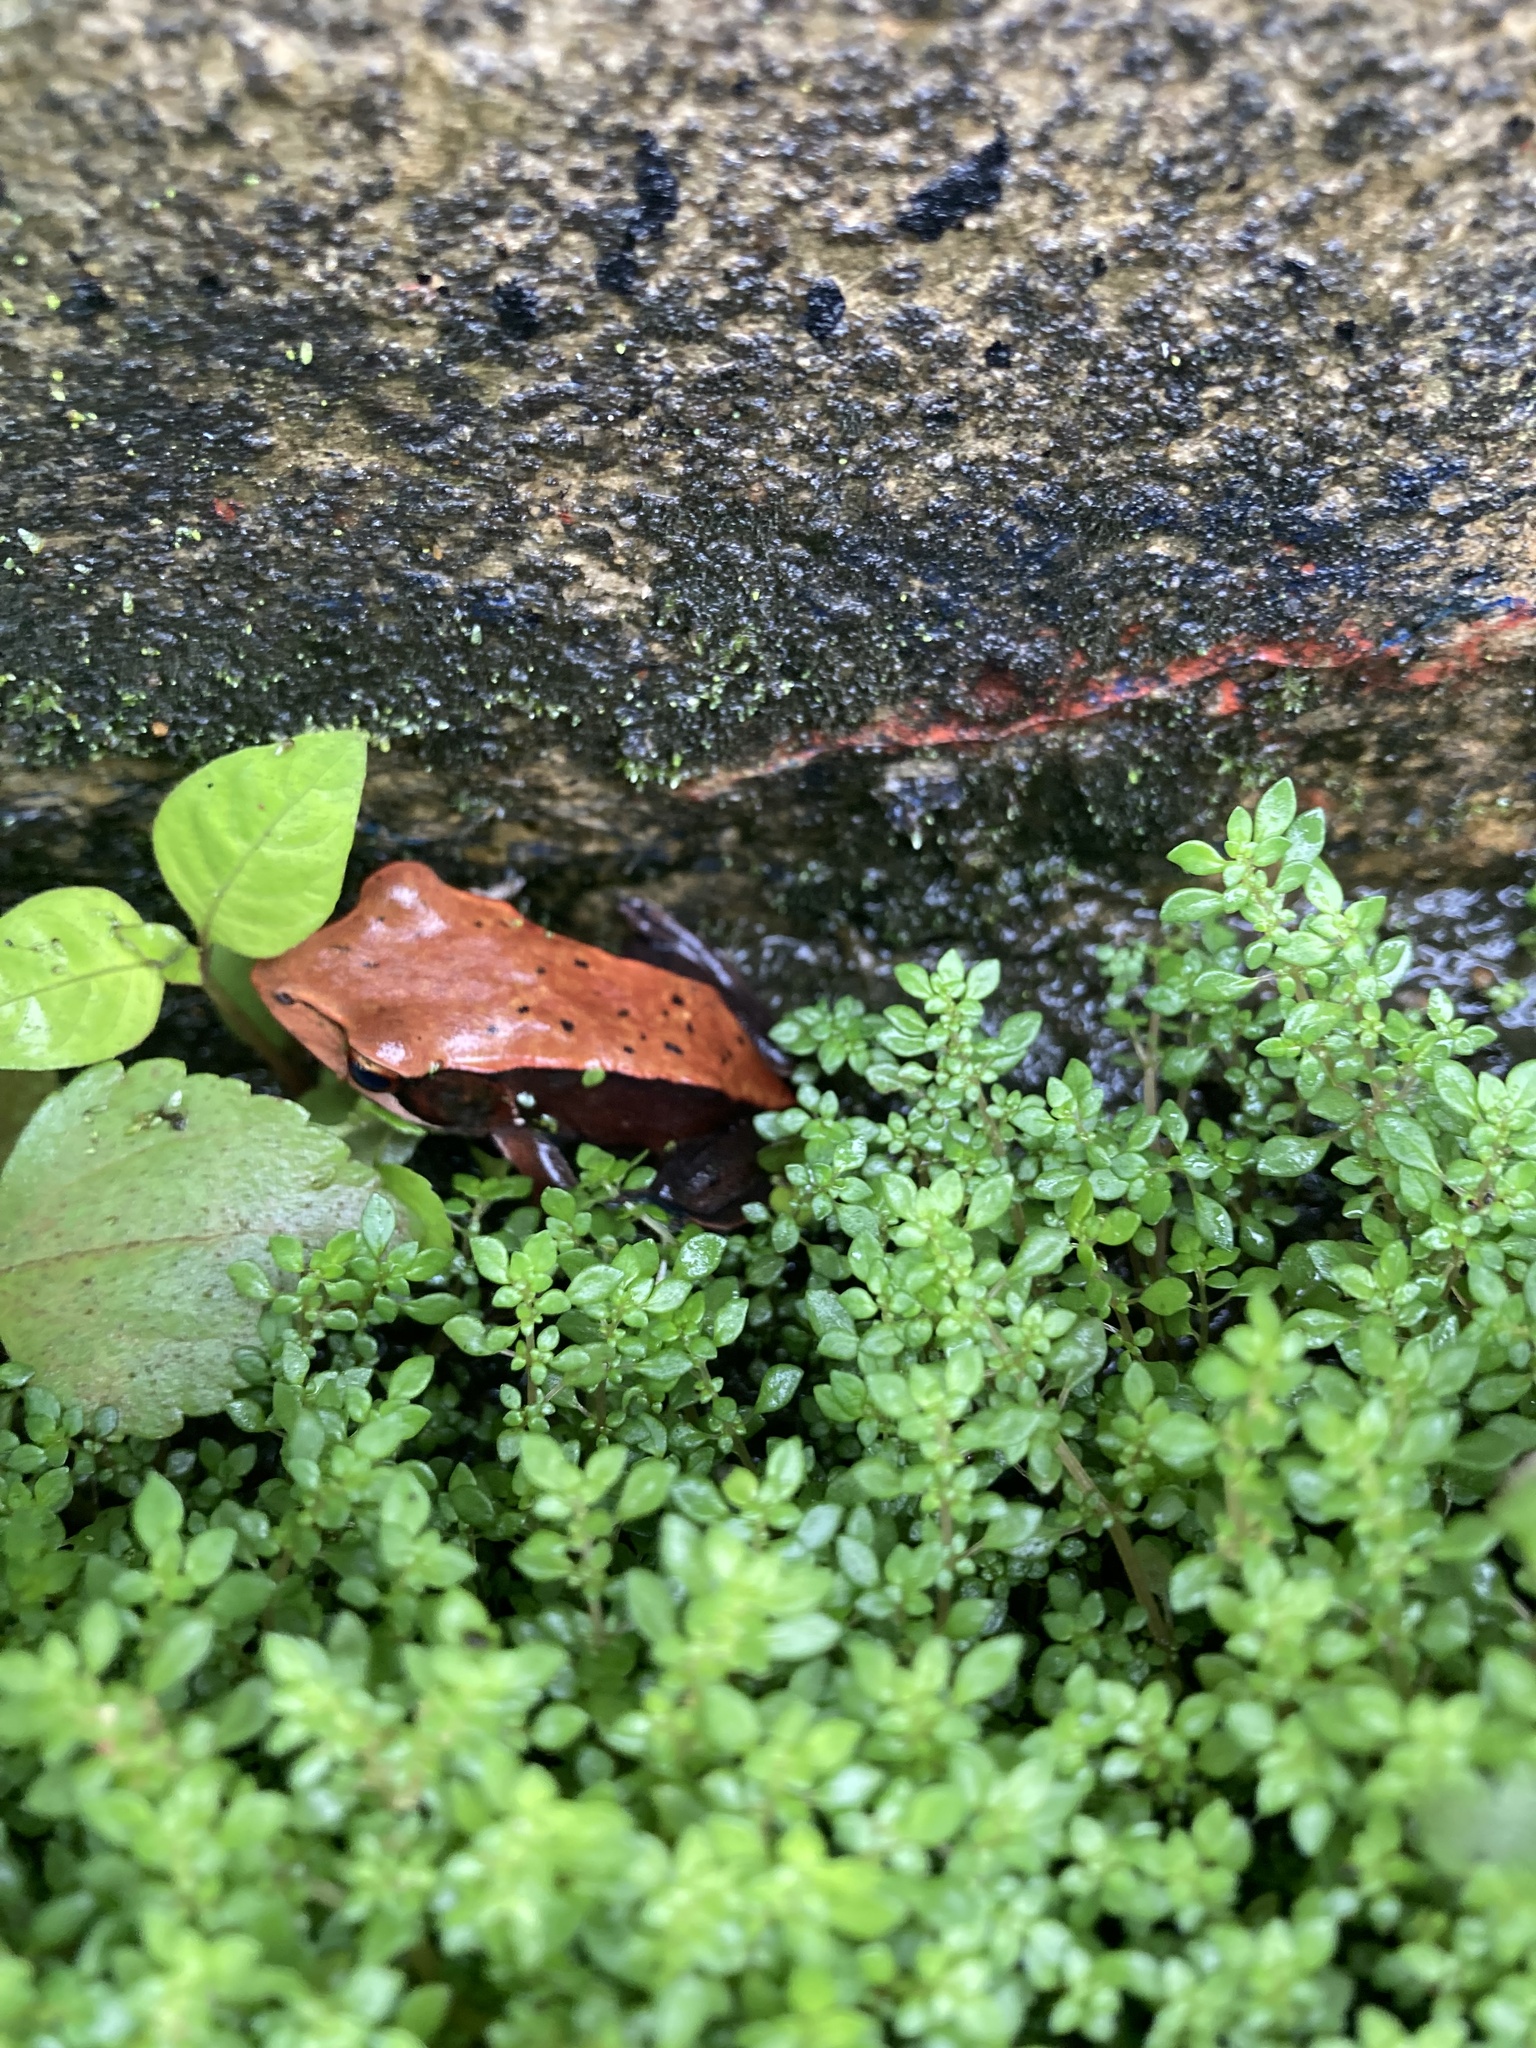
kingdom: Animalia
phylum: Chordata
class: Amphibia
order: Anura
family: Ranidae
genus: Clinotarsus
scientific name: Clinotarsus curtipes
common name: Bicoloured frog
